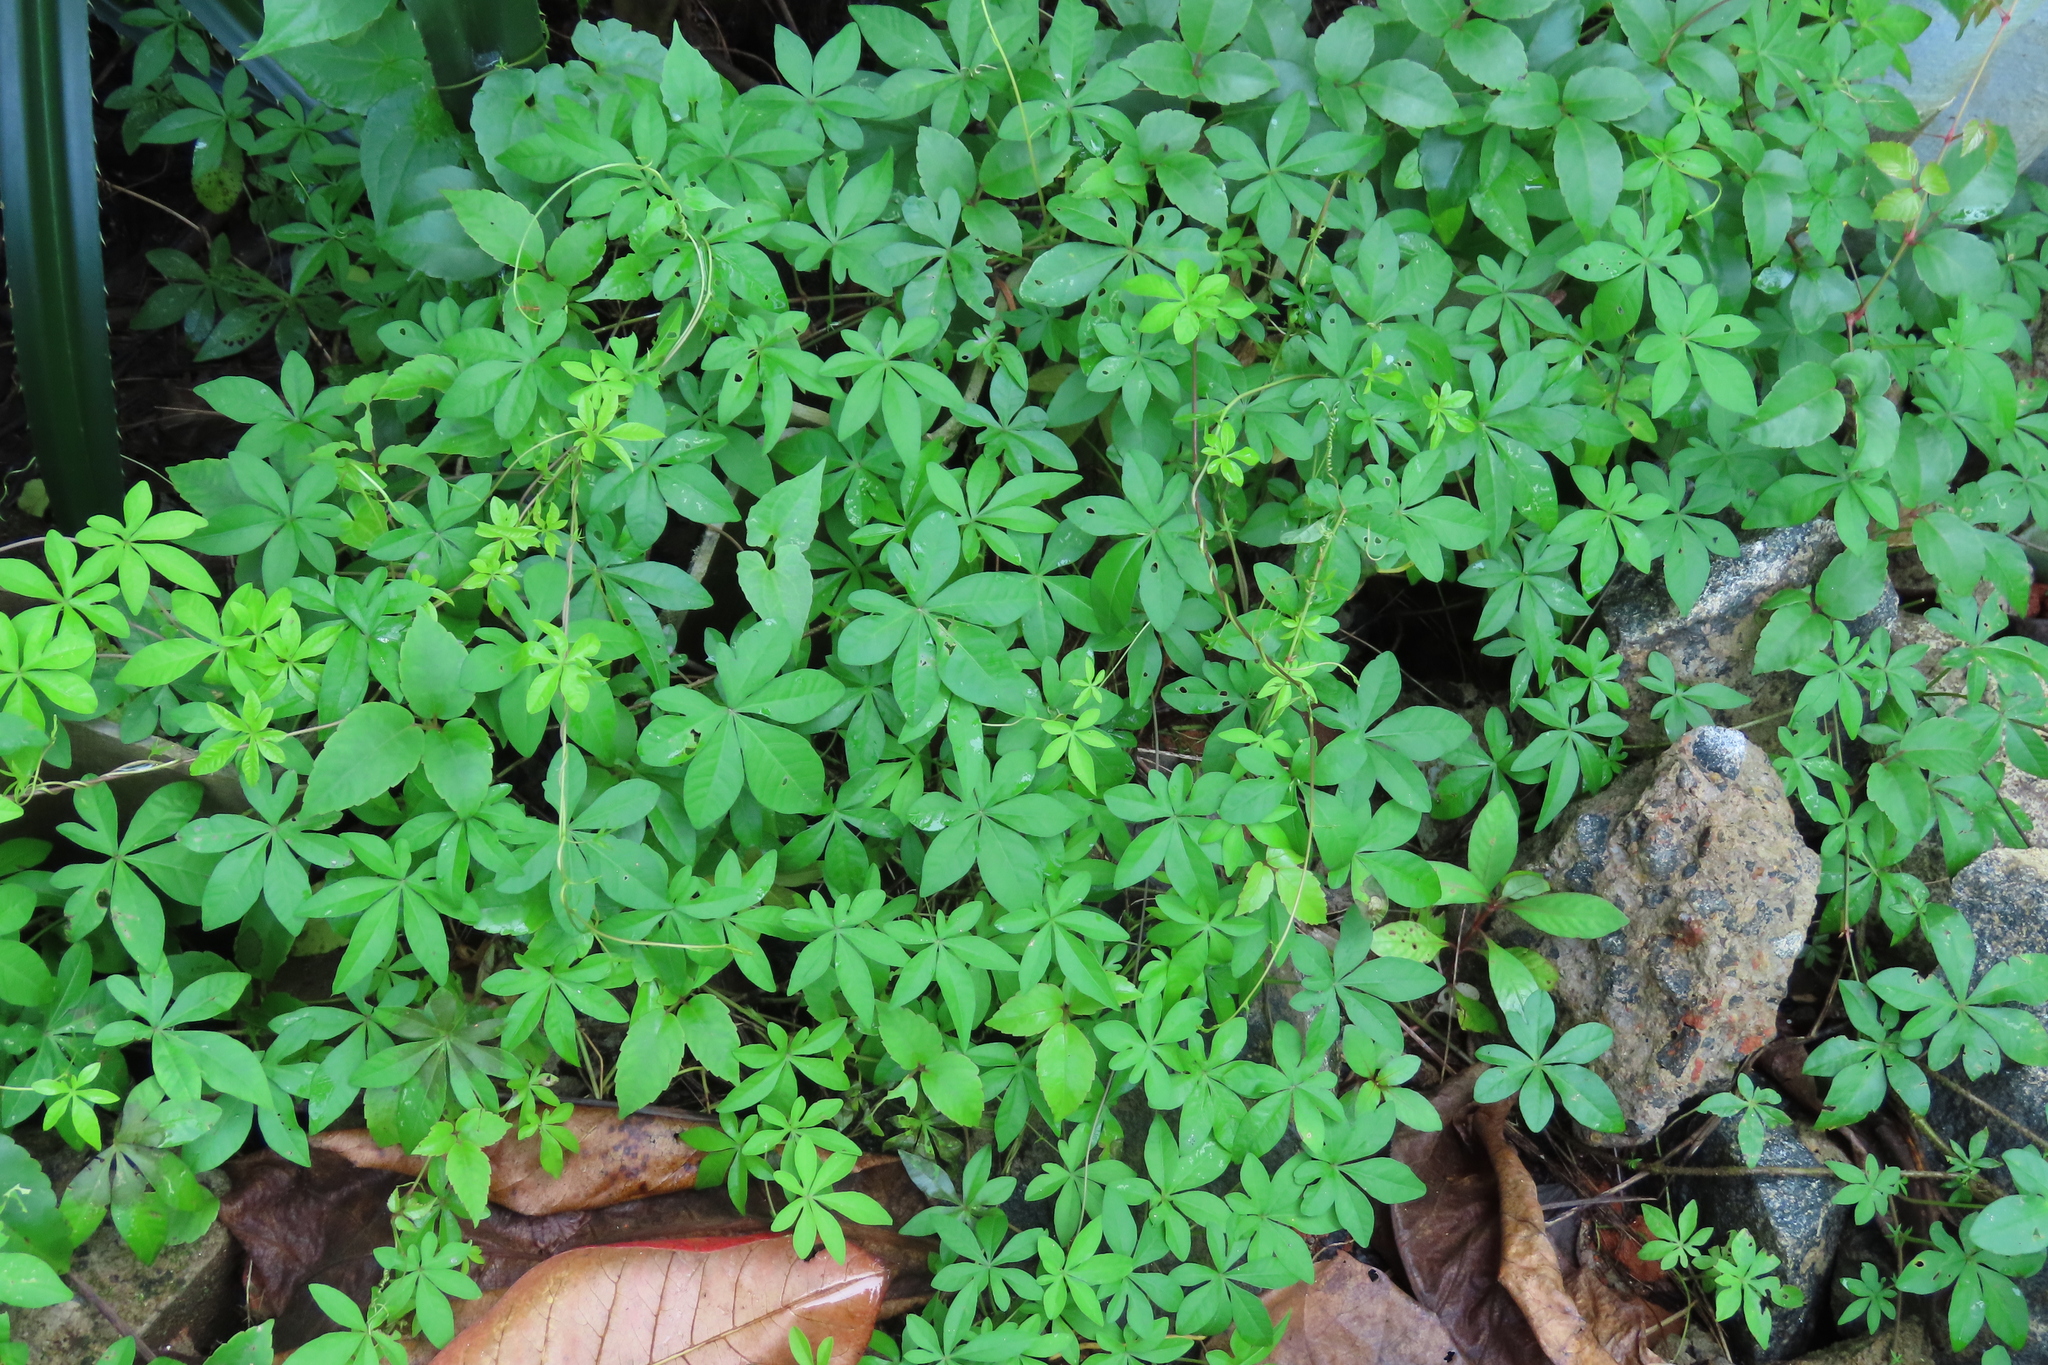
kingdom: Plantae
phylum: Tracheophyta
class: Magnoliopsida
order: Solanales
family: Convolvulaceae
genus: Ipomoea
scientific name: Ipomoea cairica
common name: Mile a minute vine
